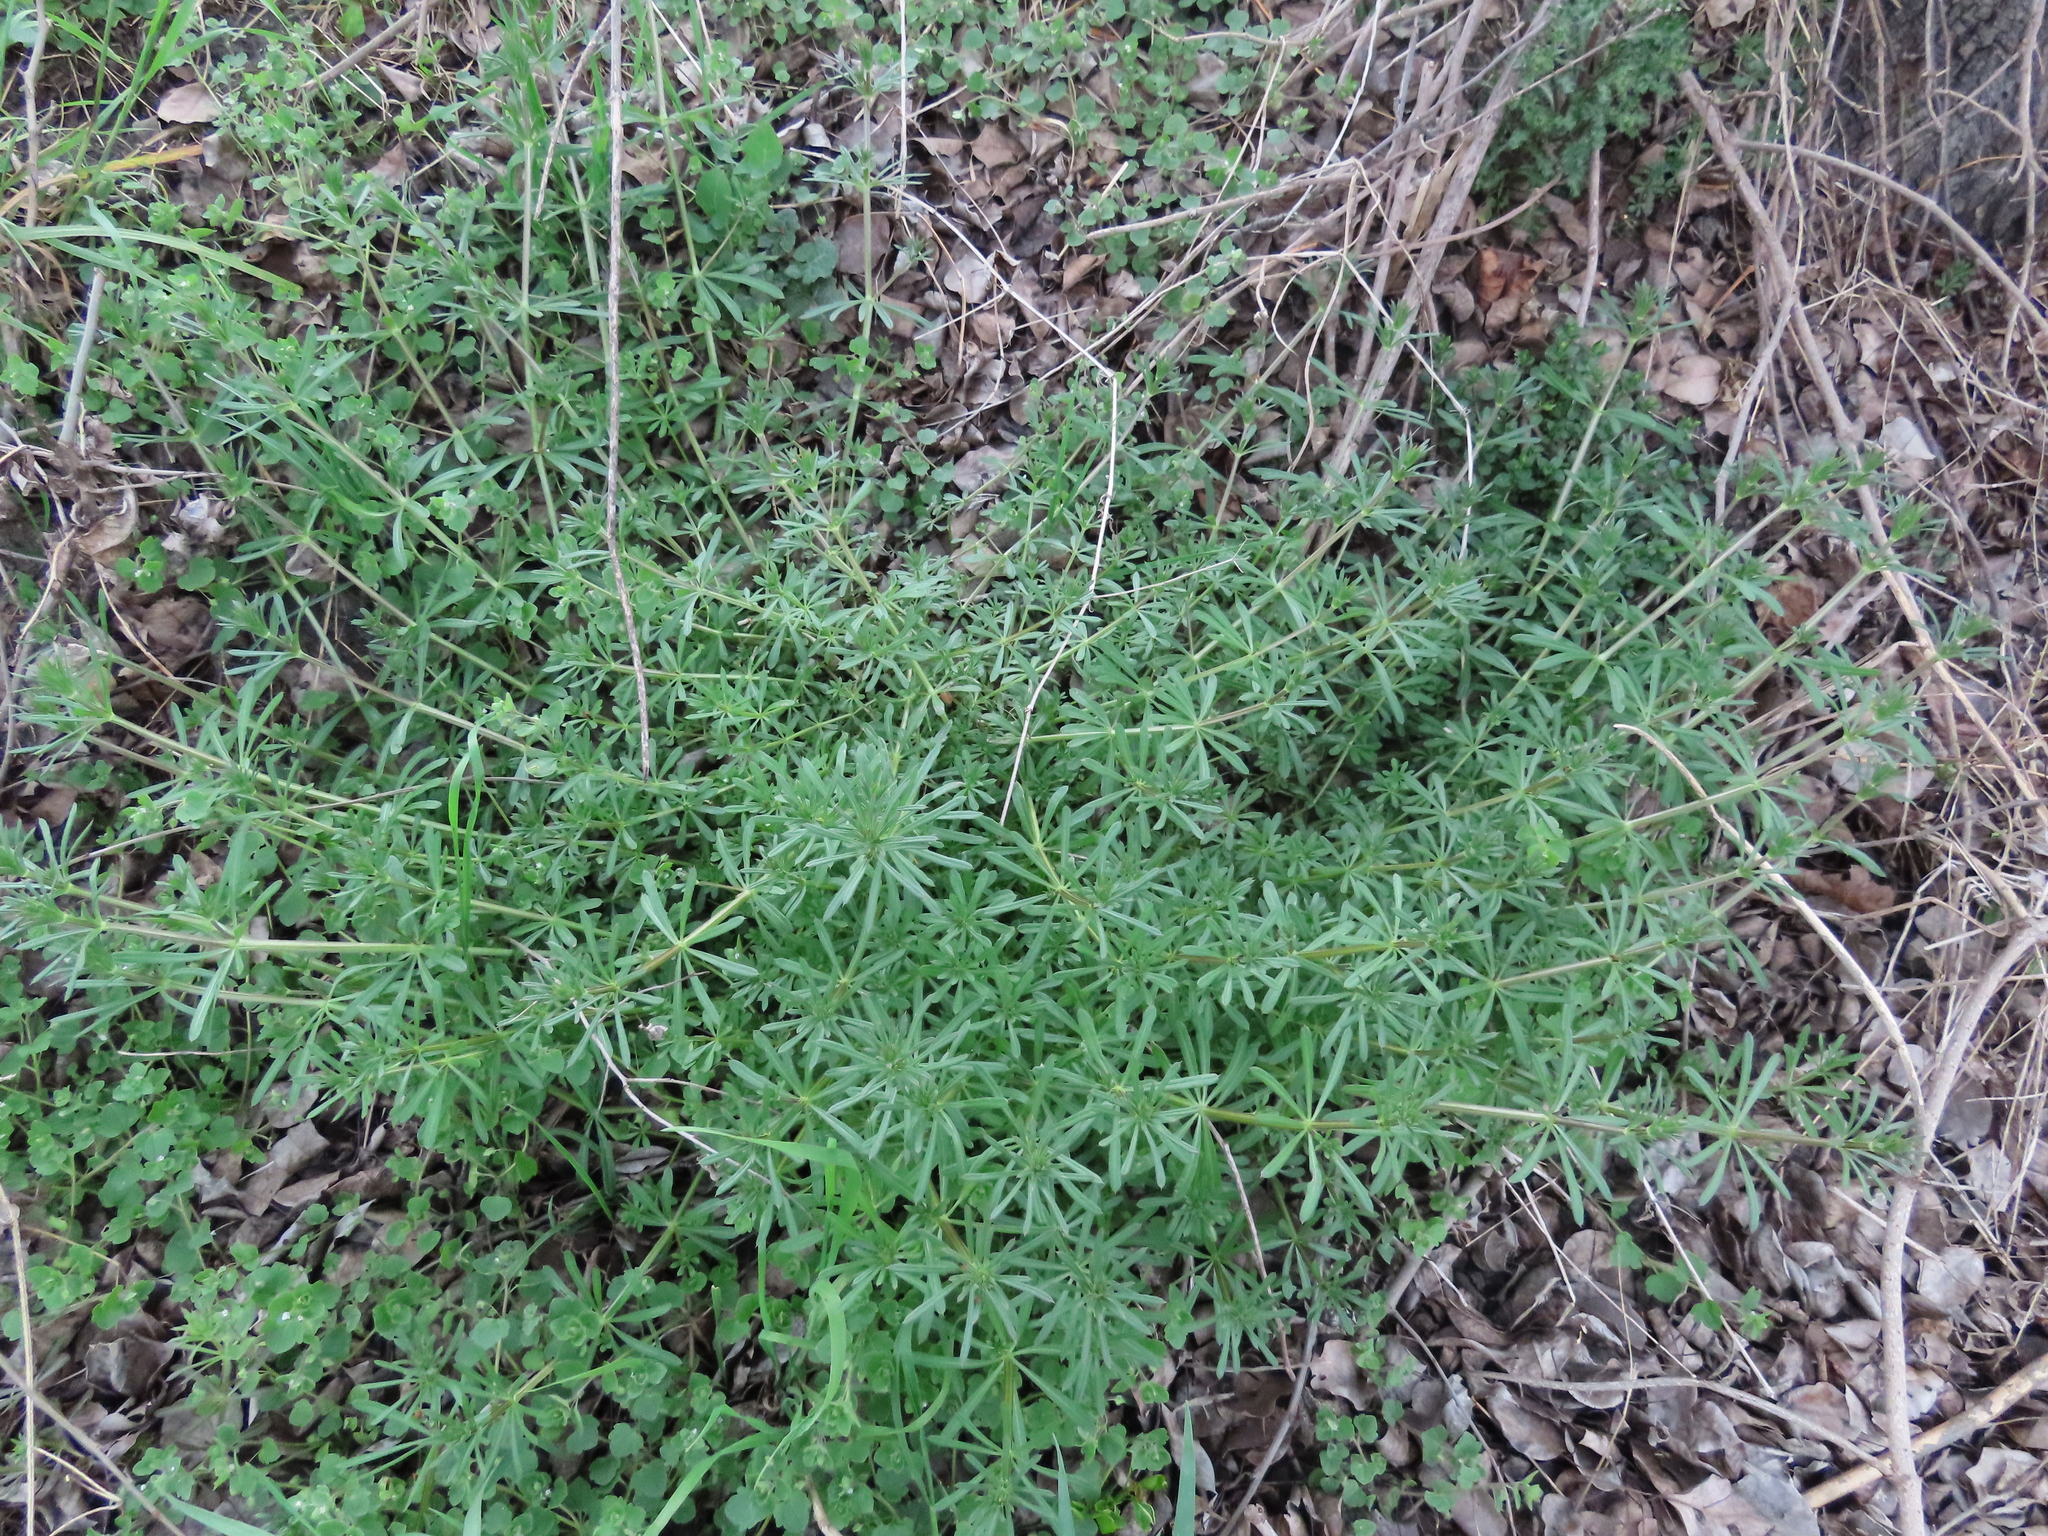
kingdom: Plantae
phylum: Tracheophyta
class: Magnoliopsida
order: Gentianales
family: Rubiaceae
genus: Galium
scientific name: Galium aparine
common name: Cleavers
